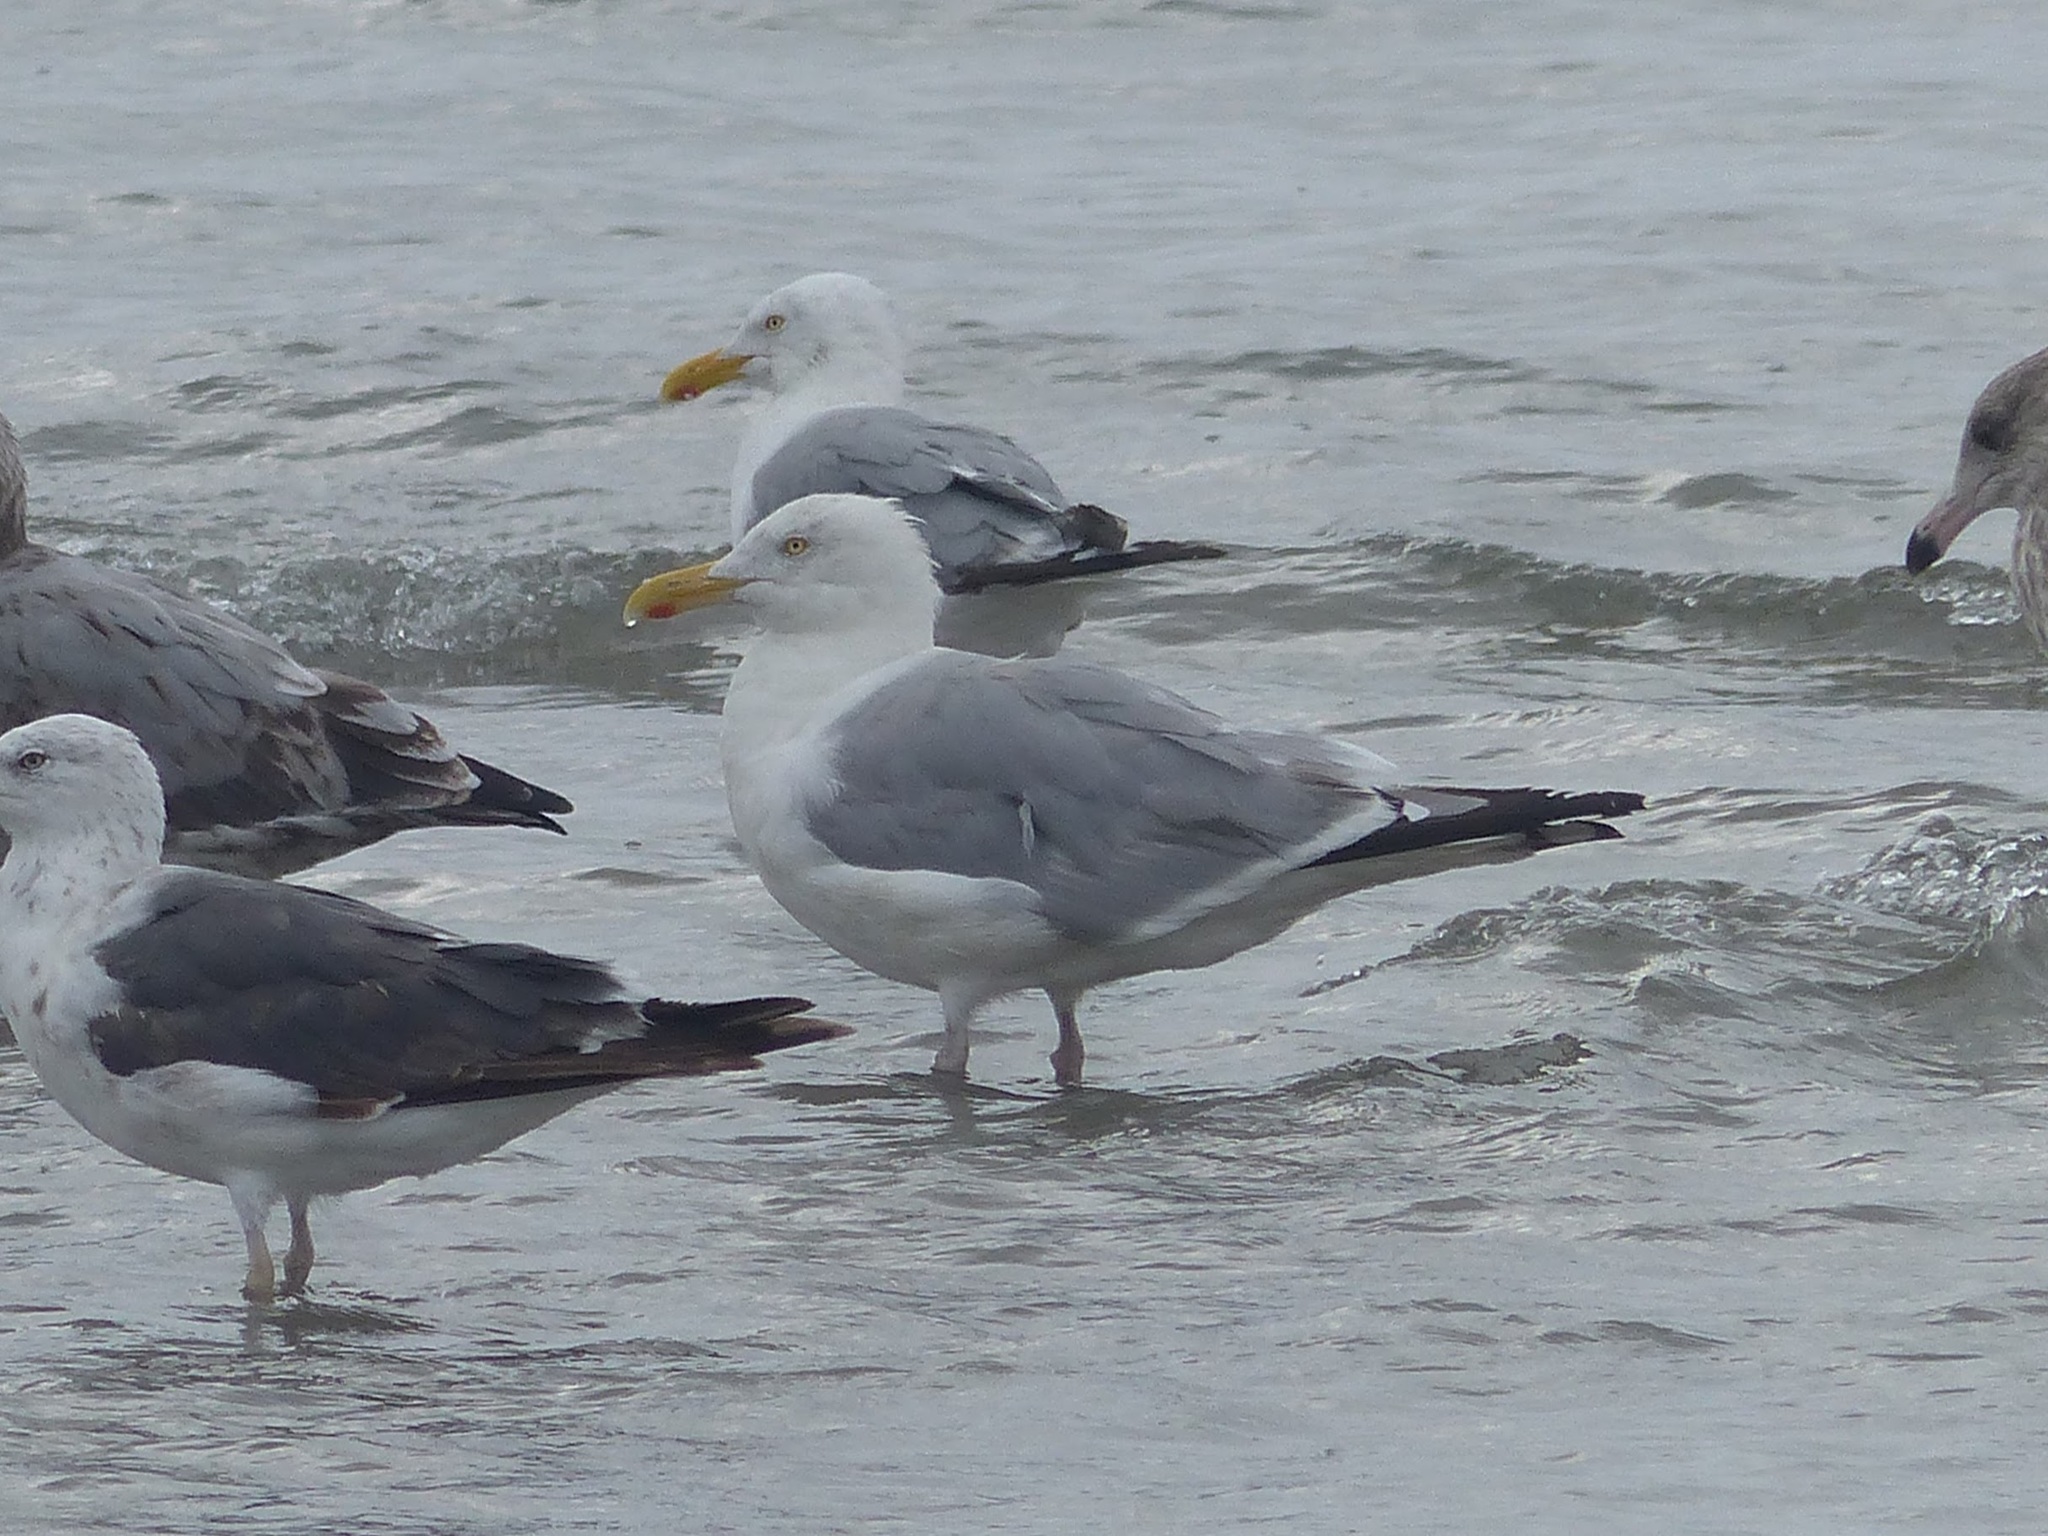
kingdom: Animalia
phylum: Chordata
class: Aves
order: Charadriiformes
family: Laridae
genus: Larus
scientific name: Larus argentatus
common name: Herring gull
